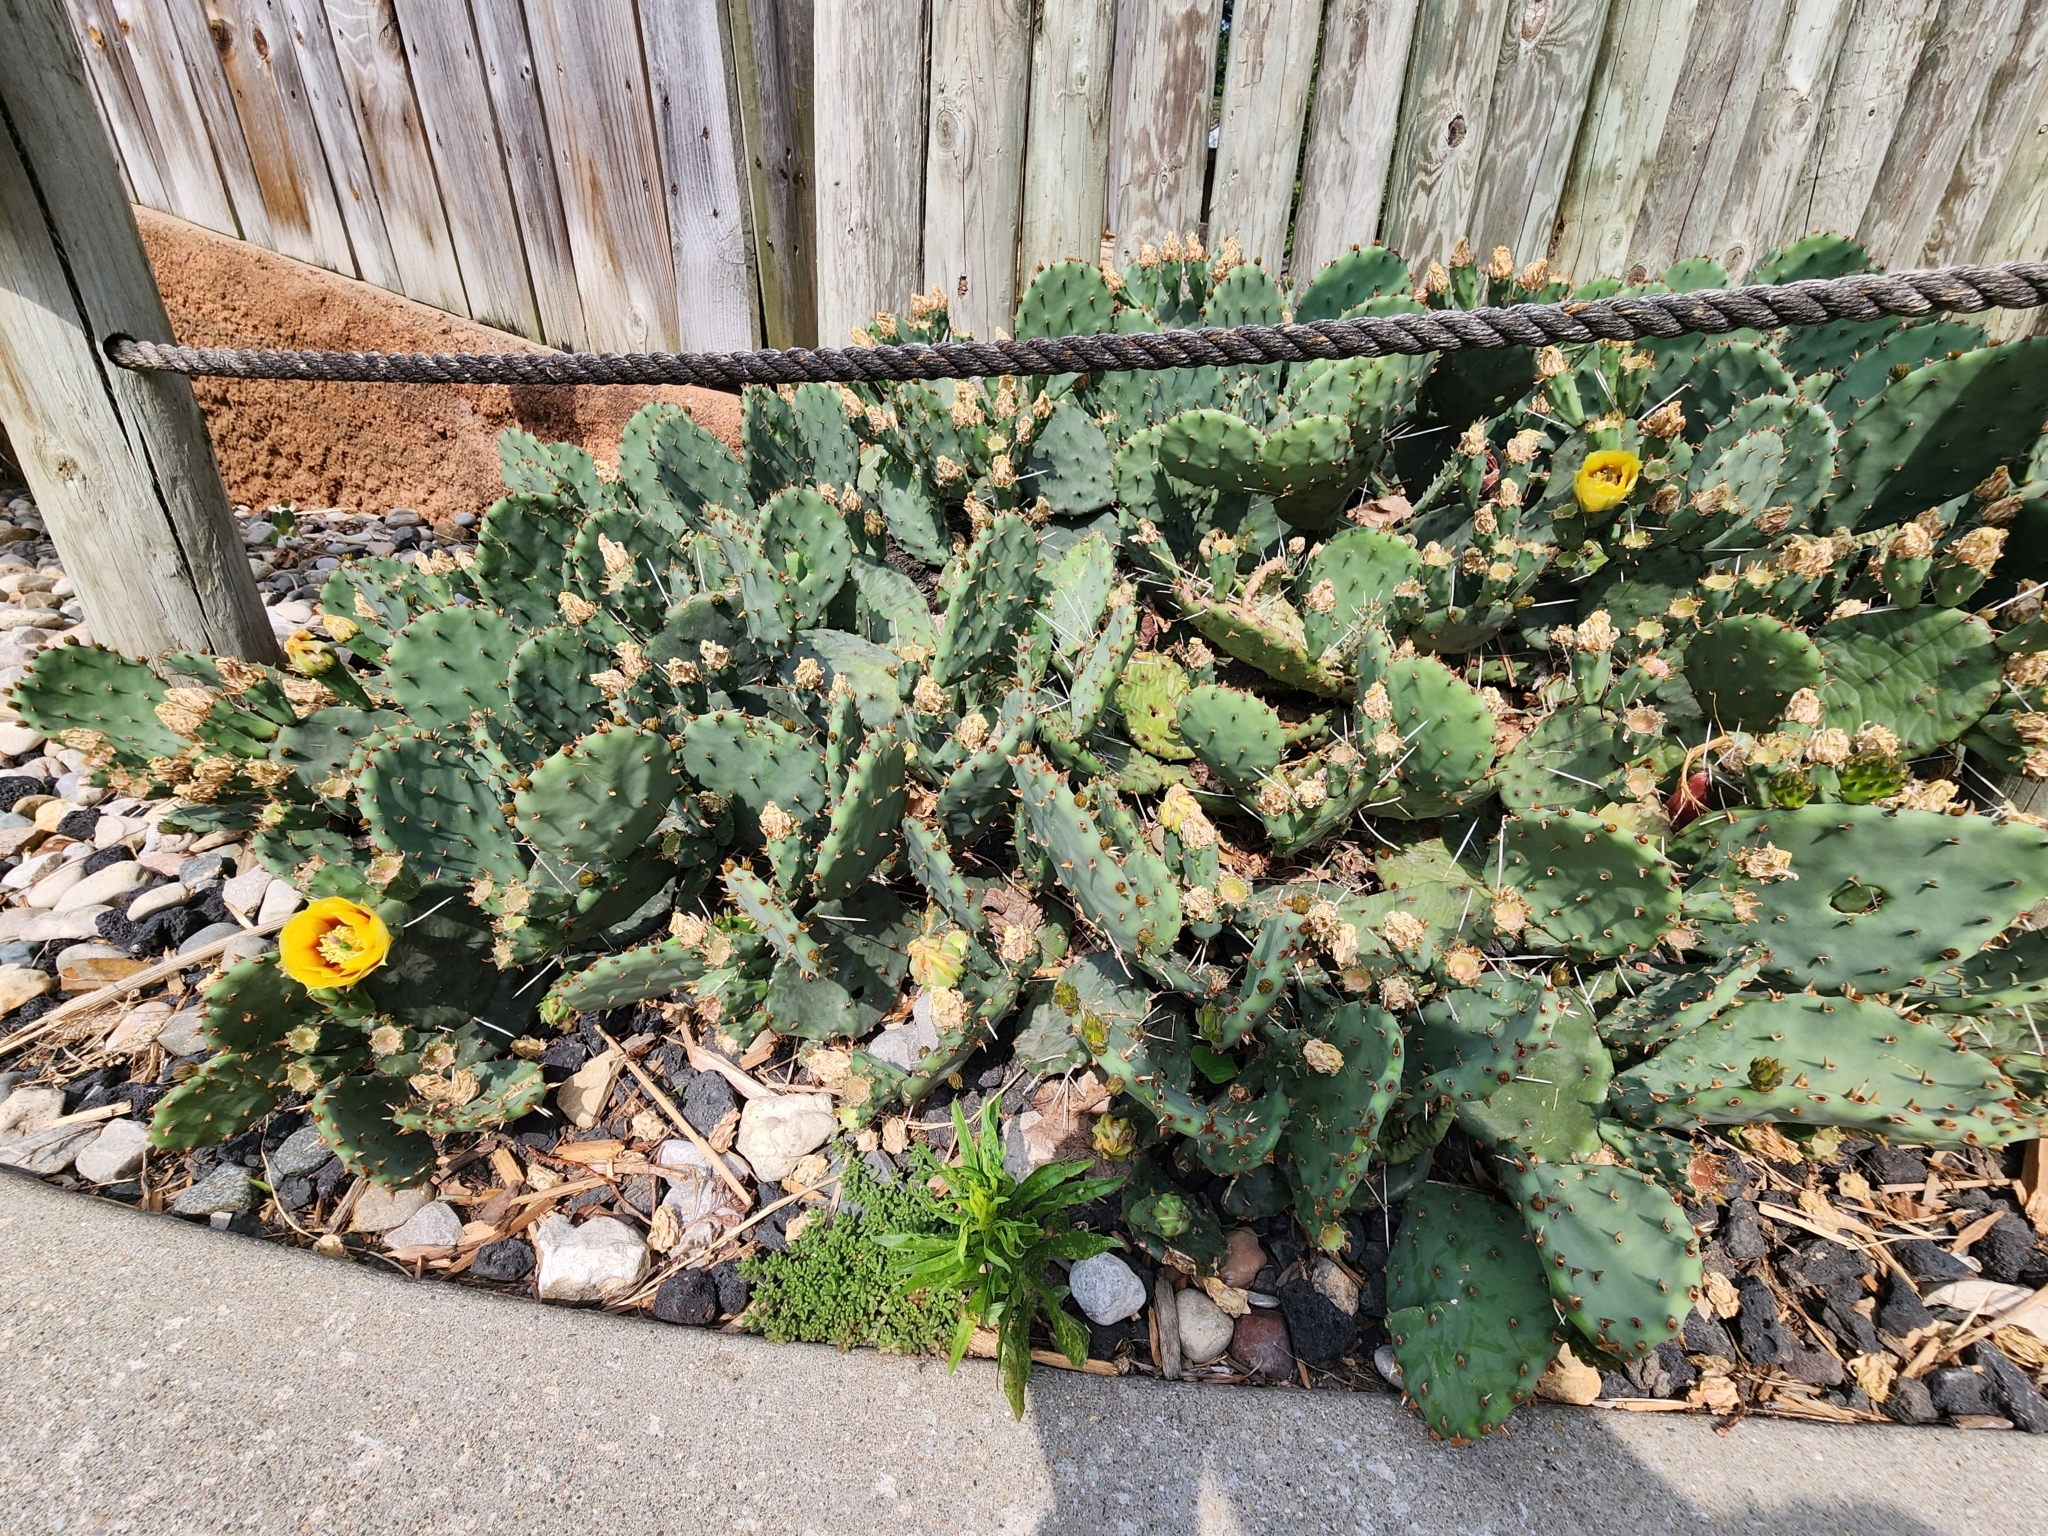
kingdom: Plantae
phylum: Tracheophyta
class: Magnoliopsida
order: Caryophyllales
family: Cactaceae
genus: Opuntia
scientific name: Opuntia humifusa
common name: Eastern prickly-pear
